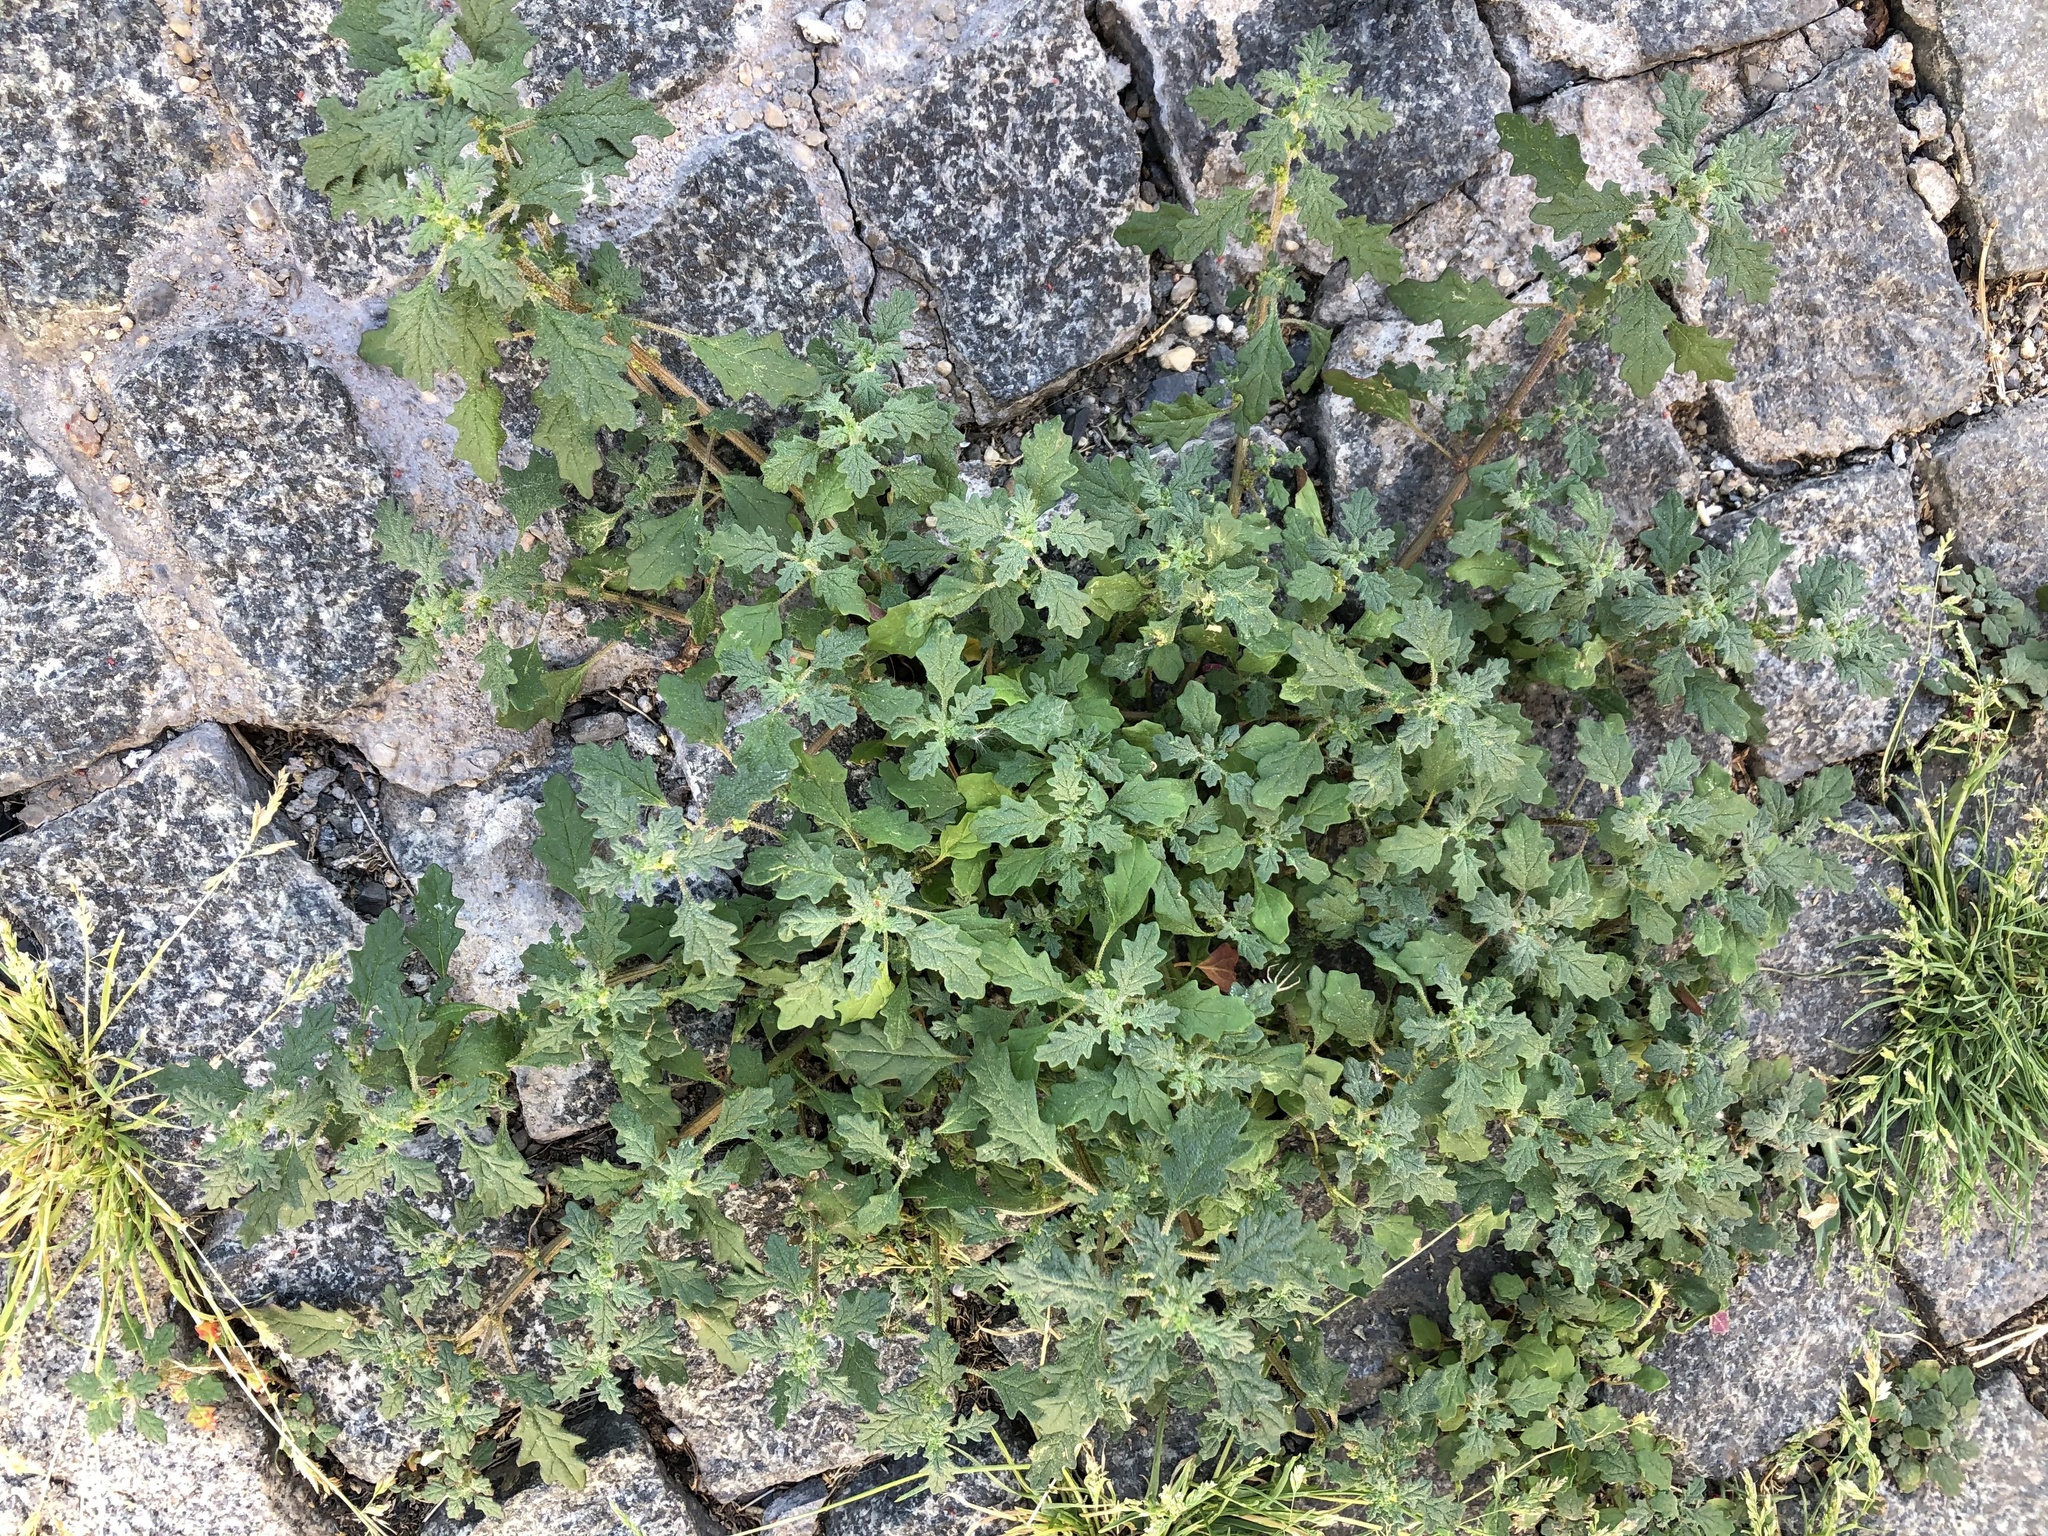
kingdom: Plantae
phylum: Tracheophyta
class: Magnoliopsida
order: Caryophyllales
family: Amaranthaceae
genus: Dysphania
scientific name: Dysphania pumilio
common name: Clammy goosefoot
